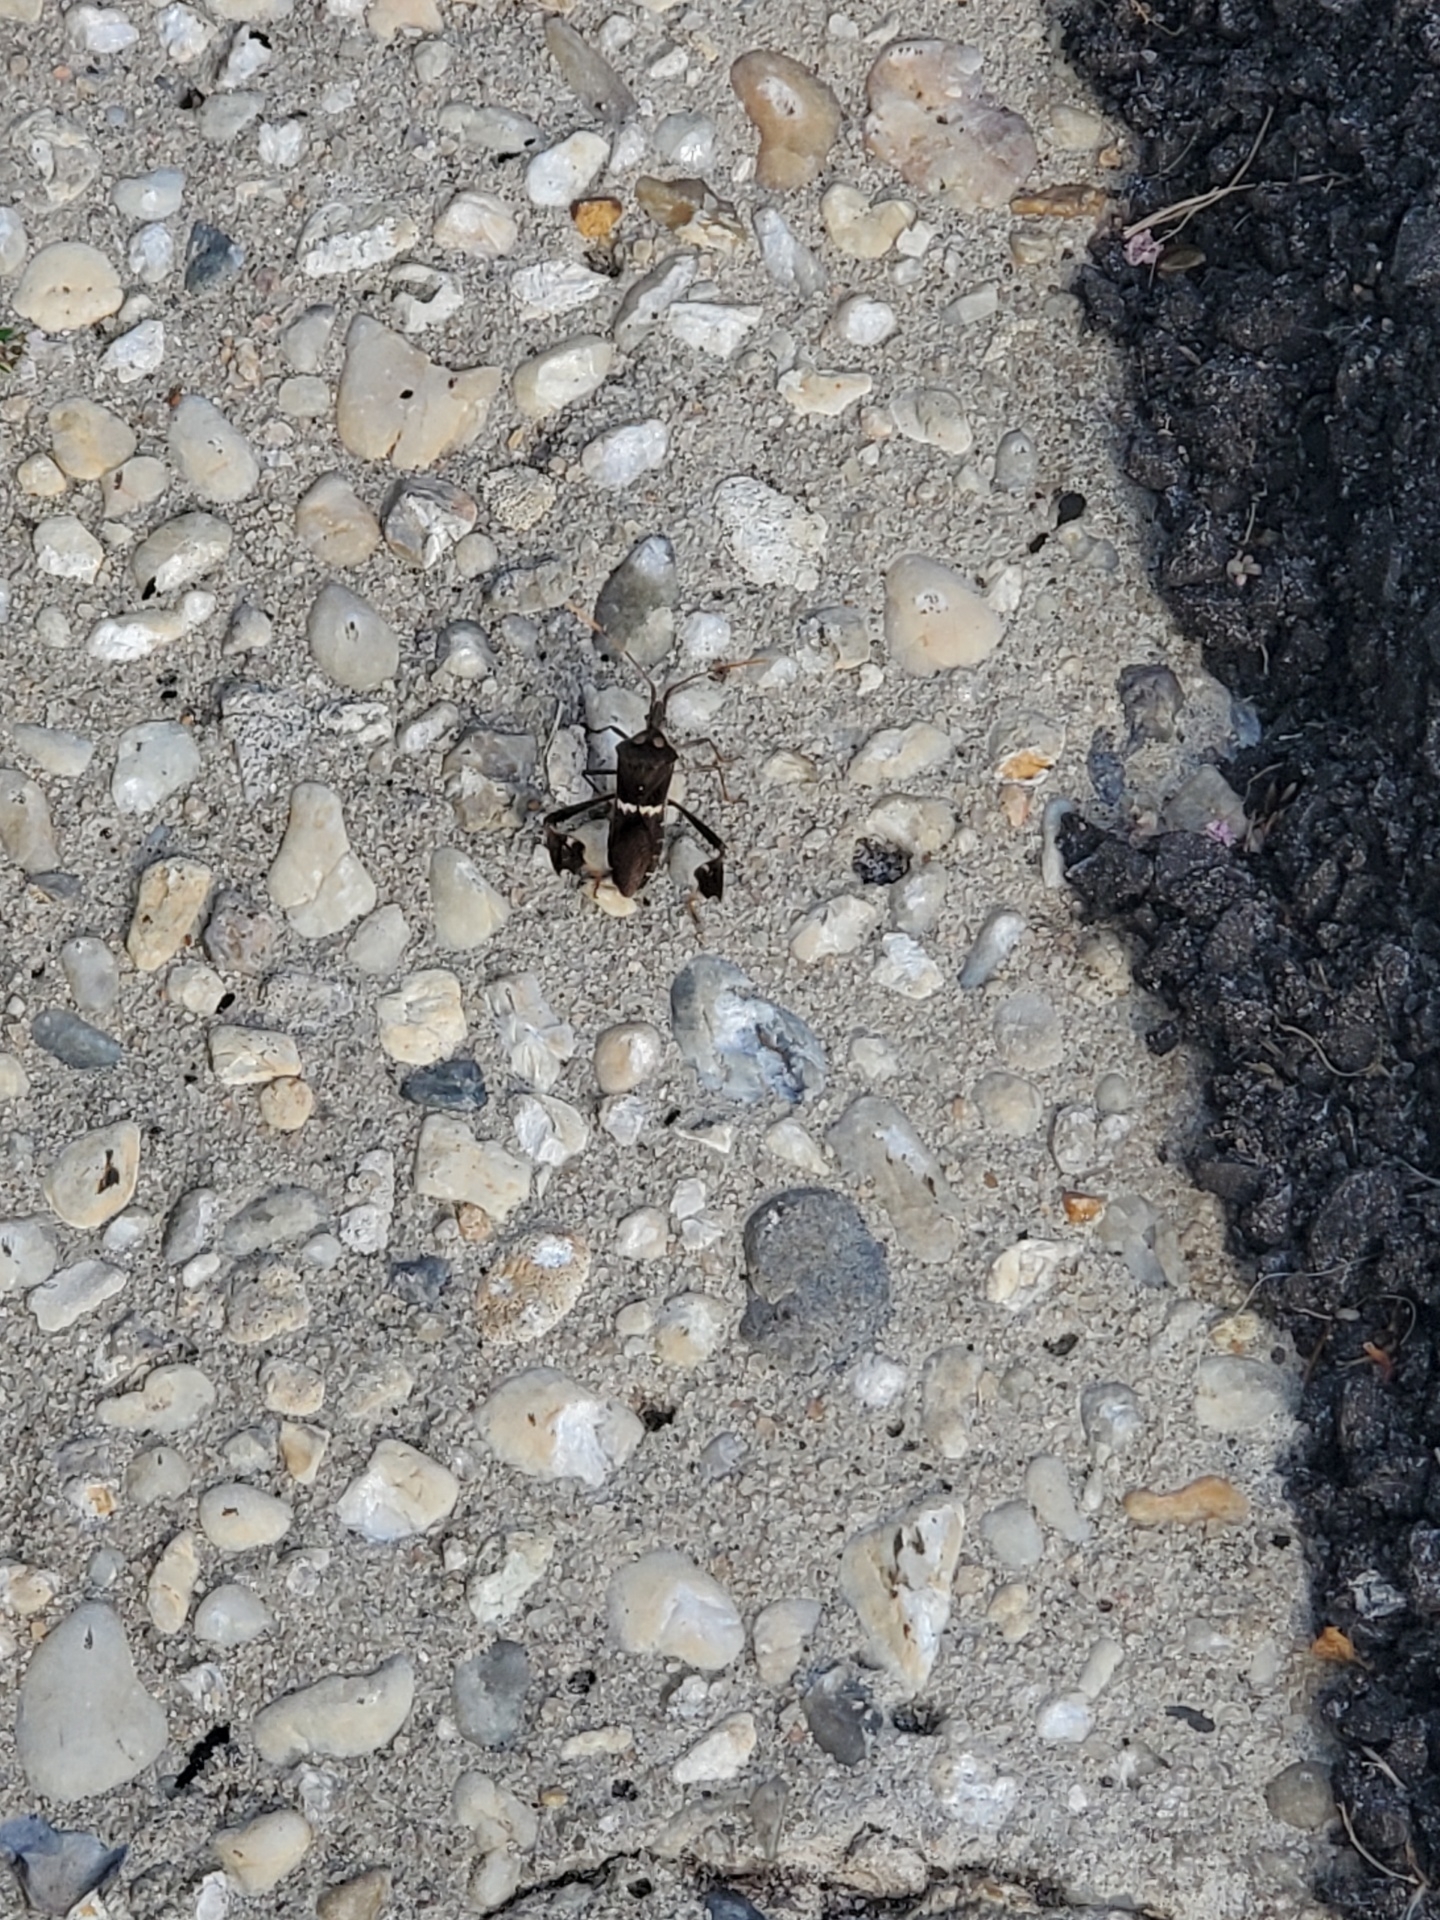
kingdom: Animalia
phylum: Arthropoda
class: Insecta
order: Hemiptera
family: Coreidae
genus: Leptoglossus
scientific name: Leptoglossus zonatus
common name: Large-legged bug
